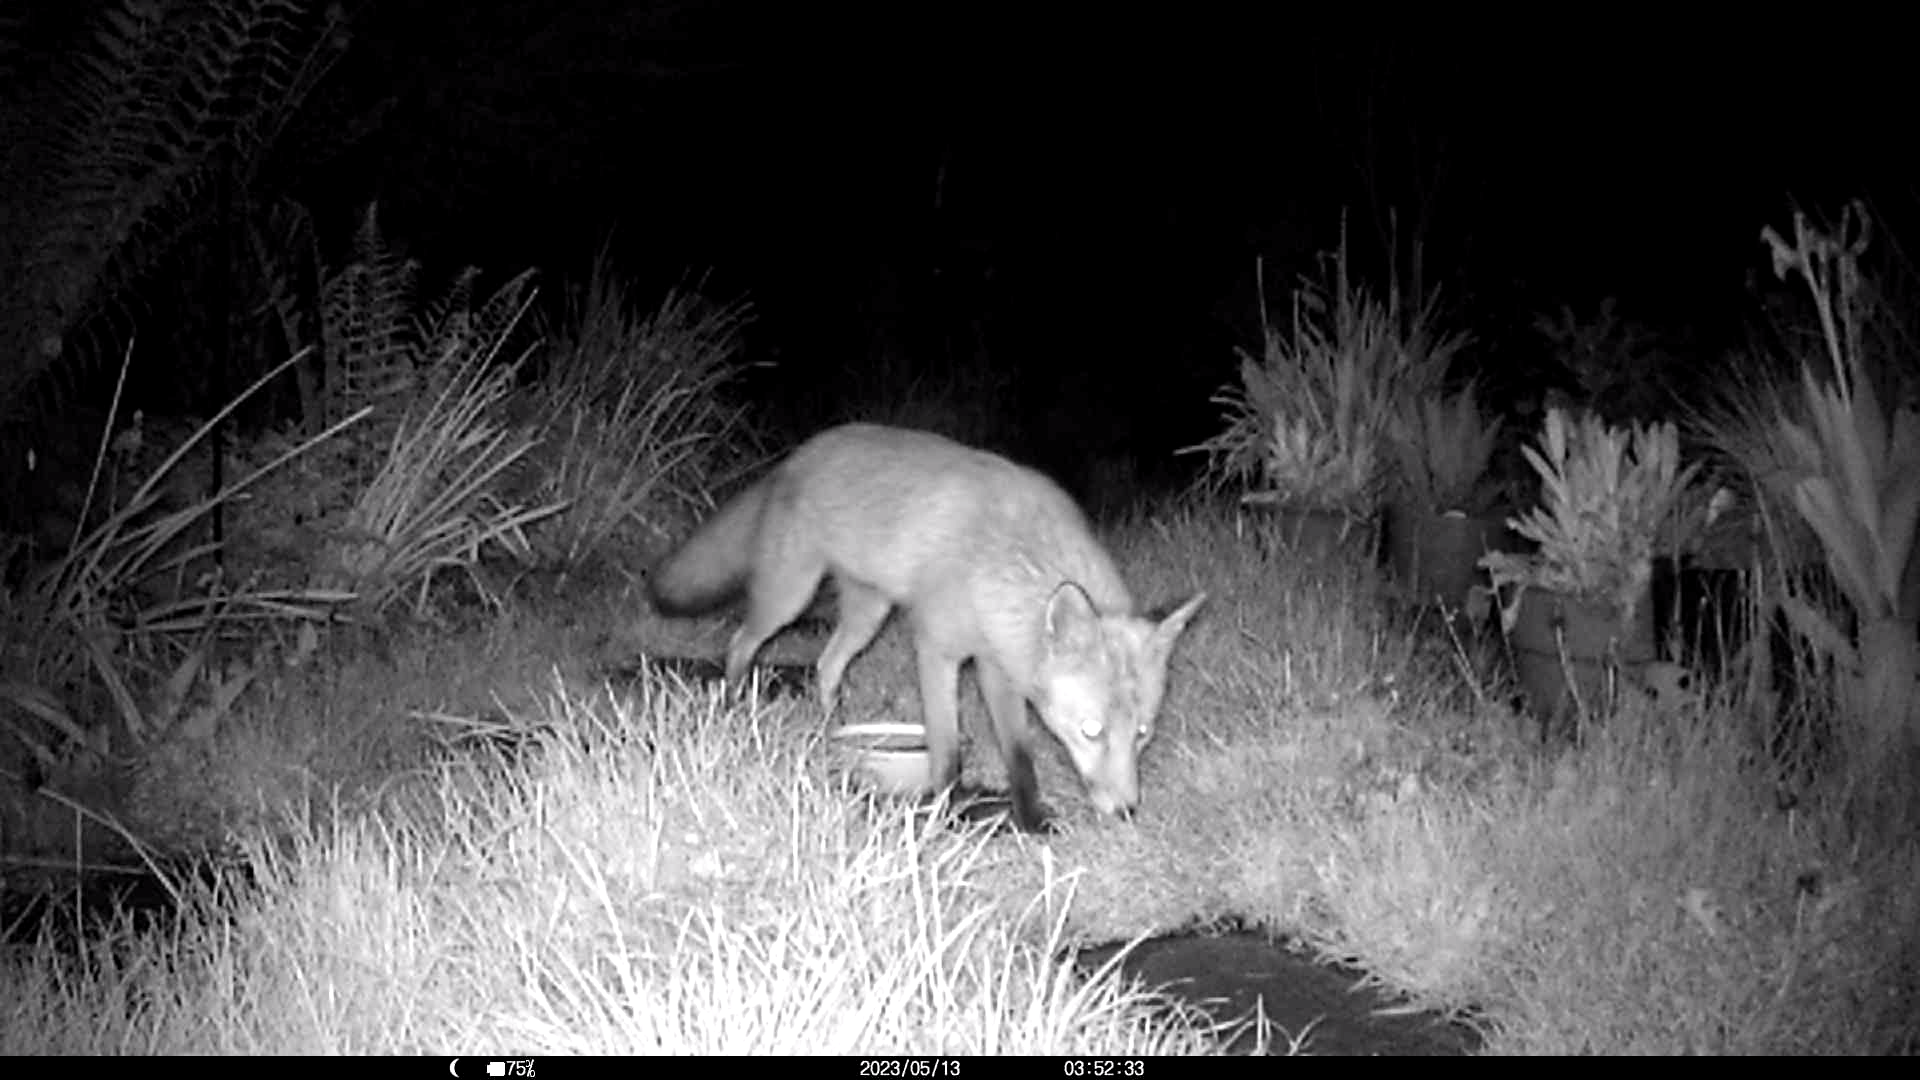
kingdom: Animalia
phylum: Chordata
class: Mammalia
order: Carnivora
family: Canidae
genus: Vulpes
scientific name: Vulpes vulpes
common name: Red fox
